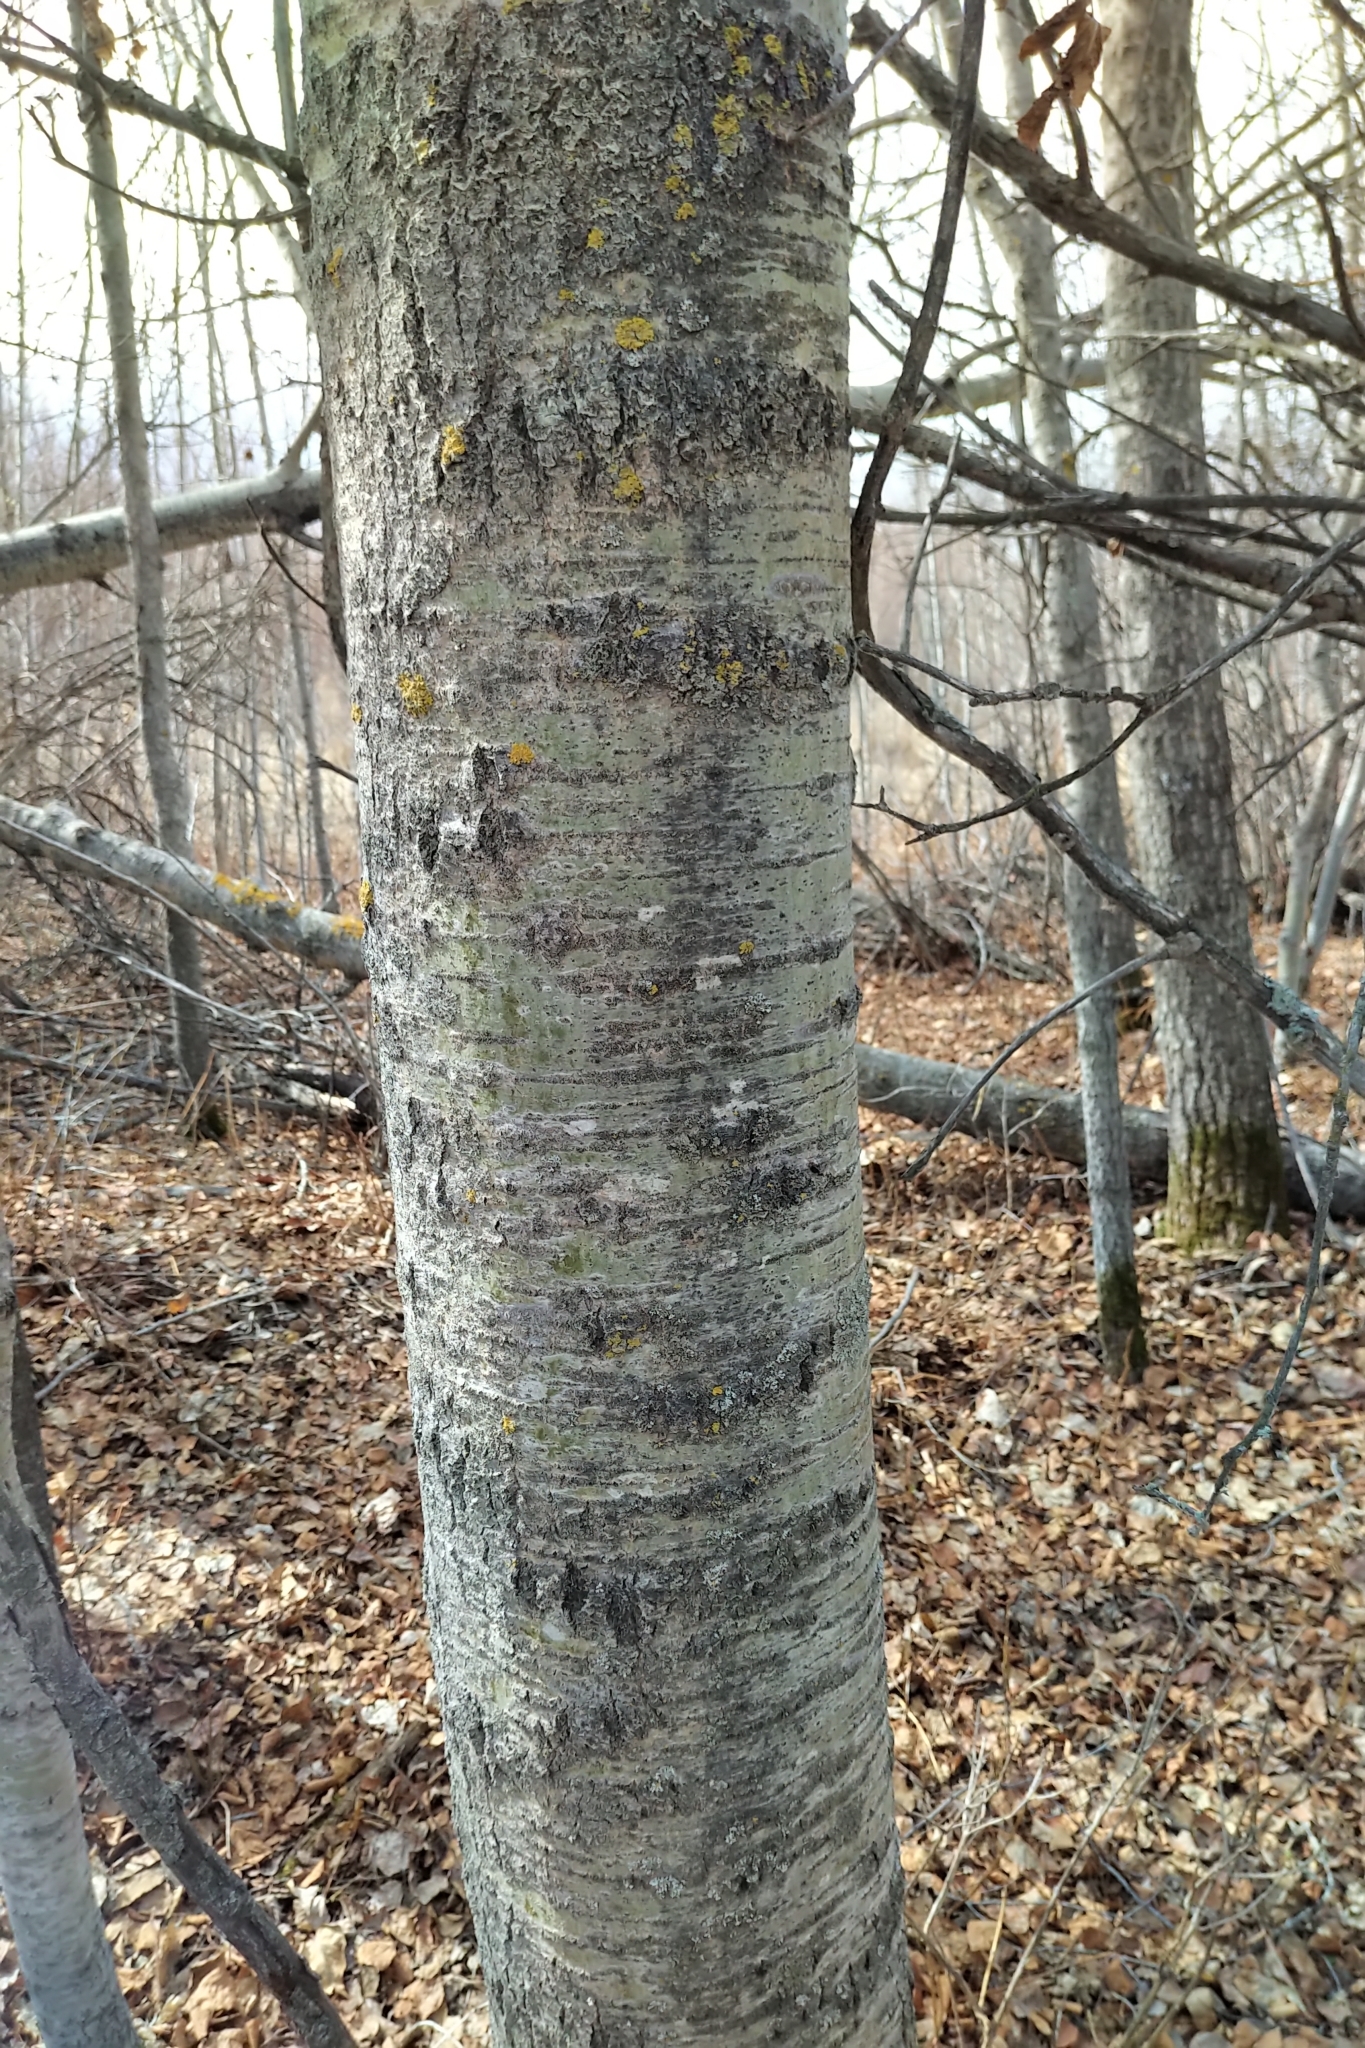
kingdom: Plantae
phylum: Tracheophyta
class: Magnoliopsida
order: Malpighiales
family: Salicaceae
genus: Populus
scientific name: Populus tremuloides
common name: Quaking aspen
